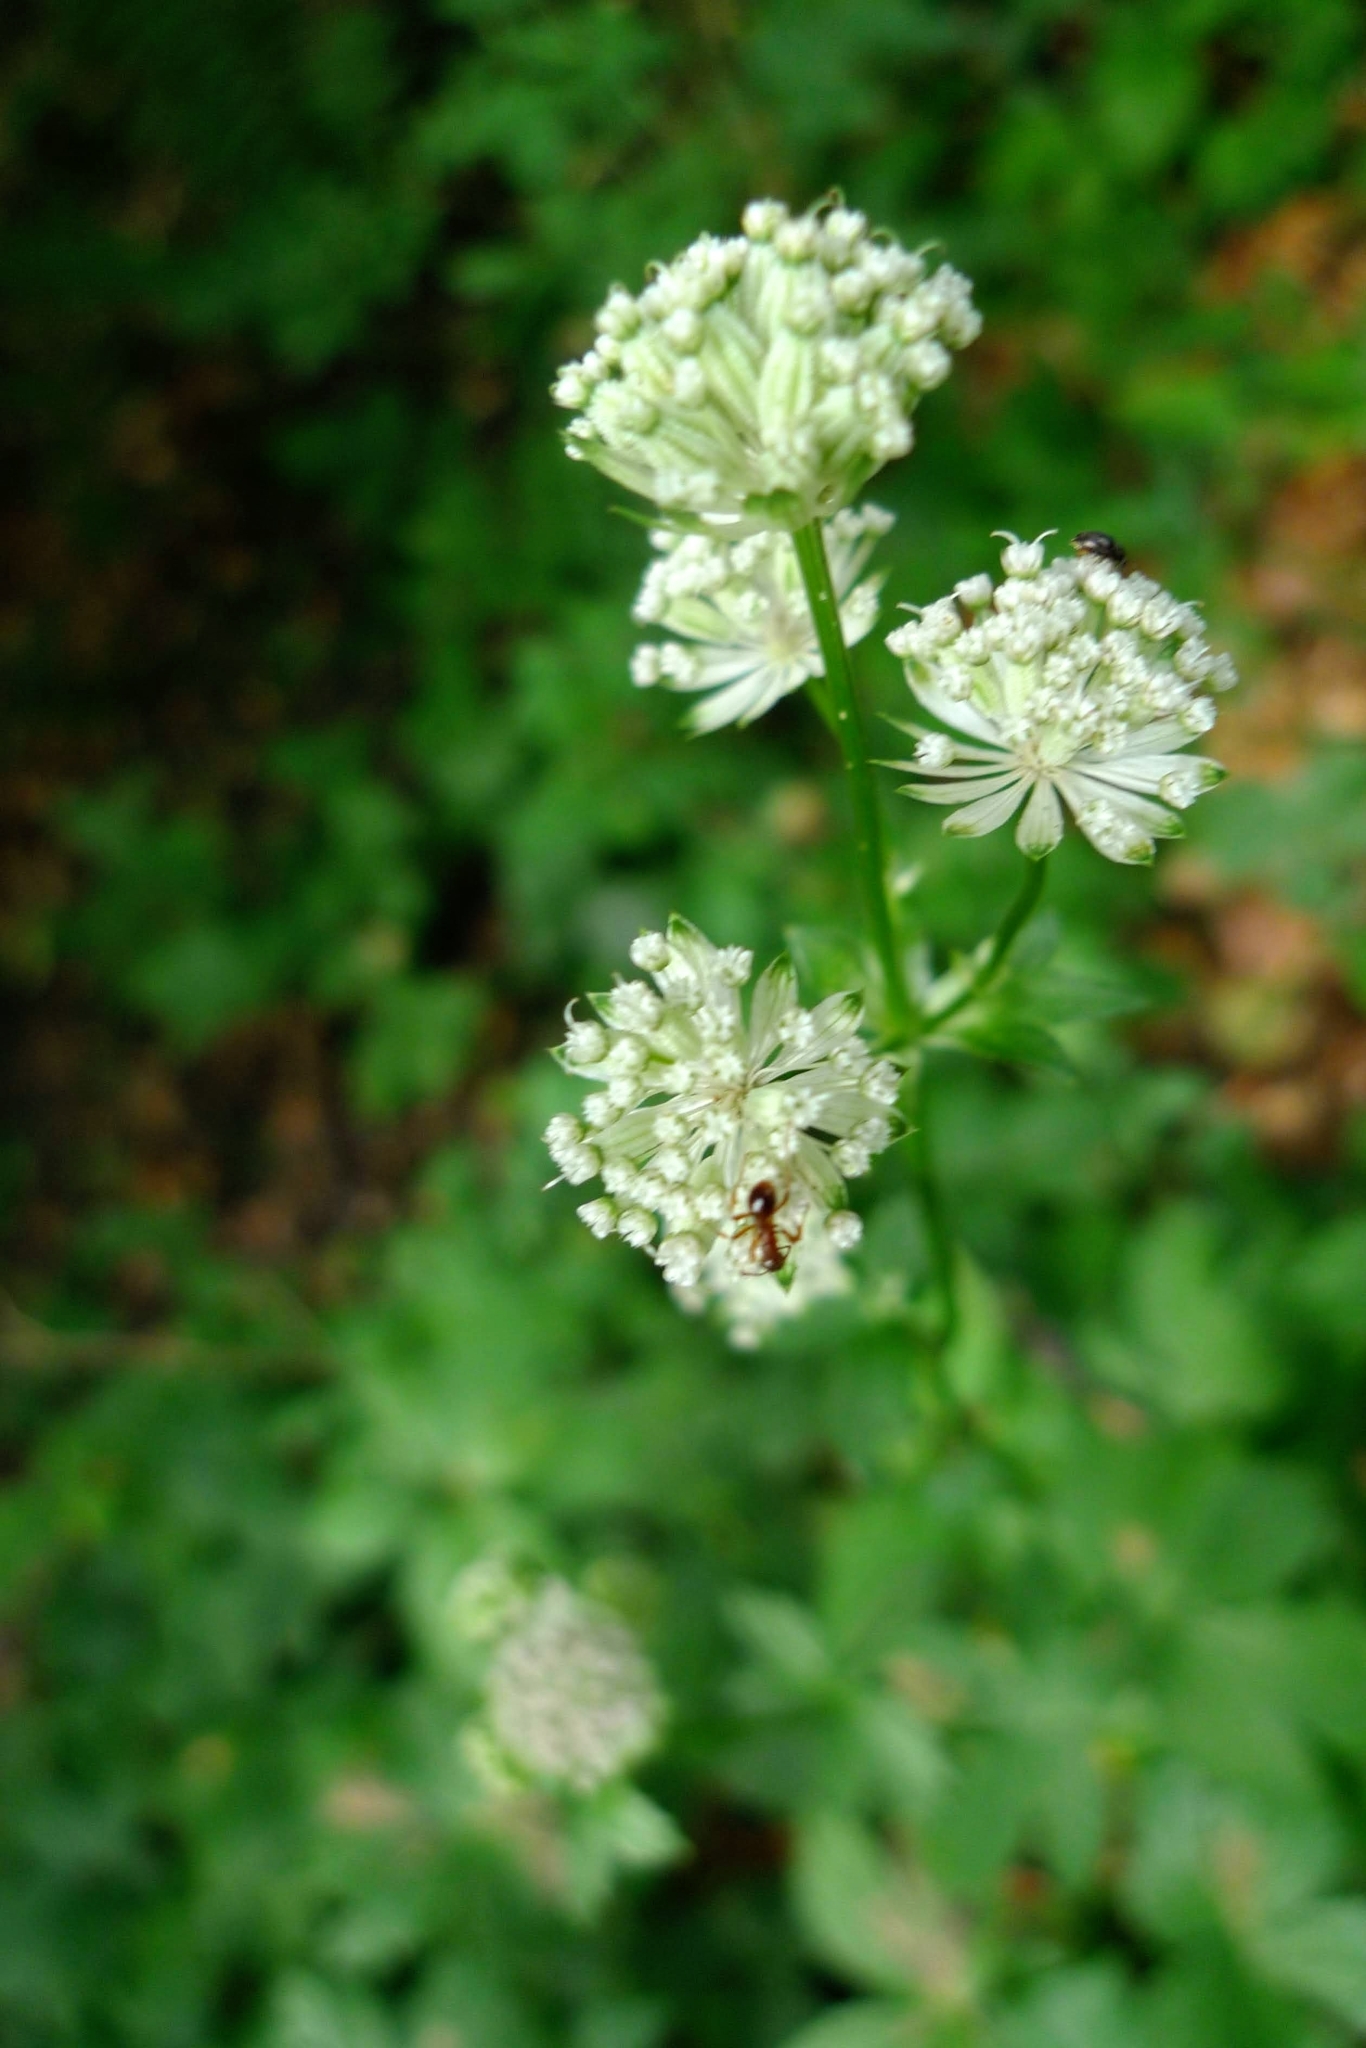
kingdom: Plantae
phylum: Tracheophyta
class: Magnoliopsida
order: Apiales
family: Apiaceae
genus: Astrantia
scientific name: Astrantia major
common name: Greater masterwort
